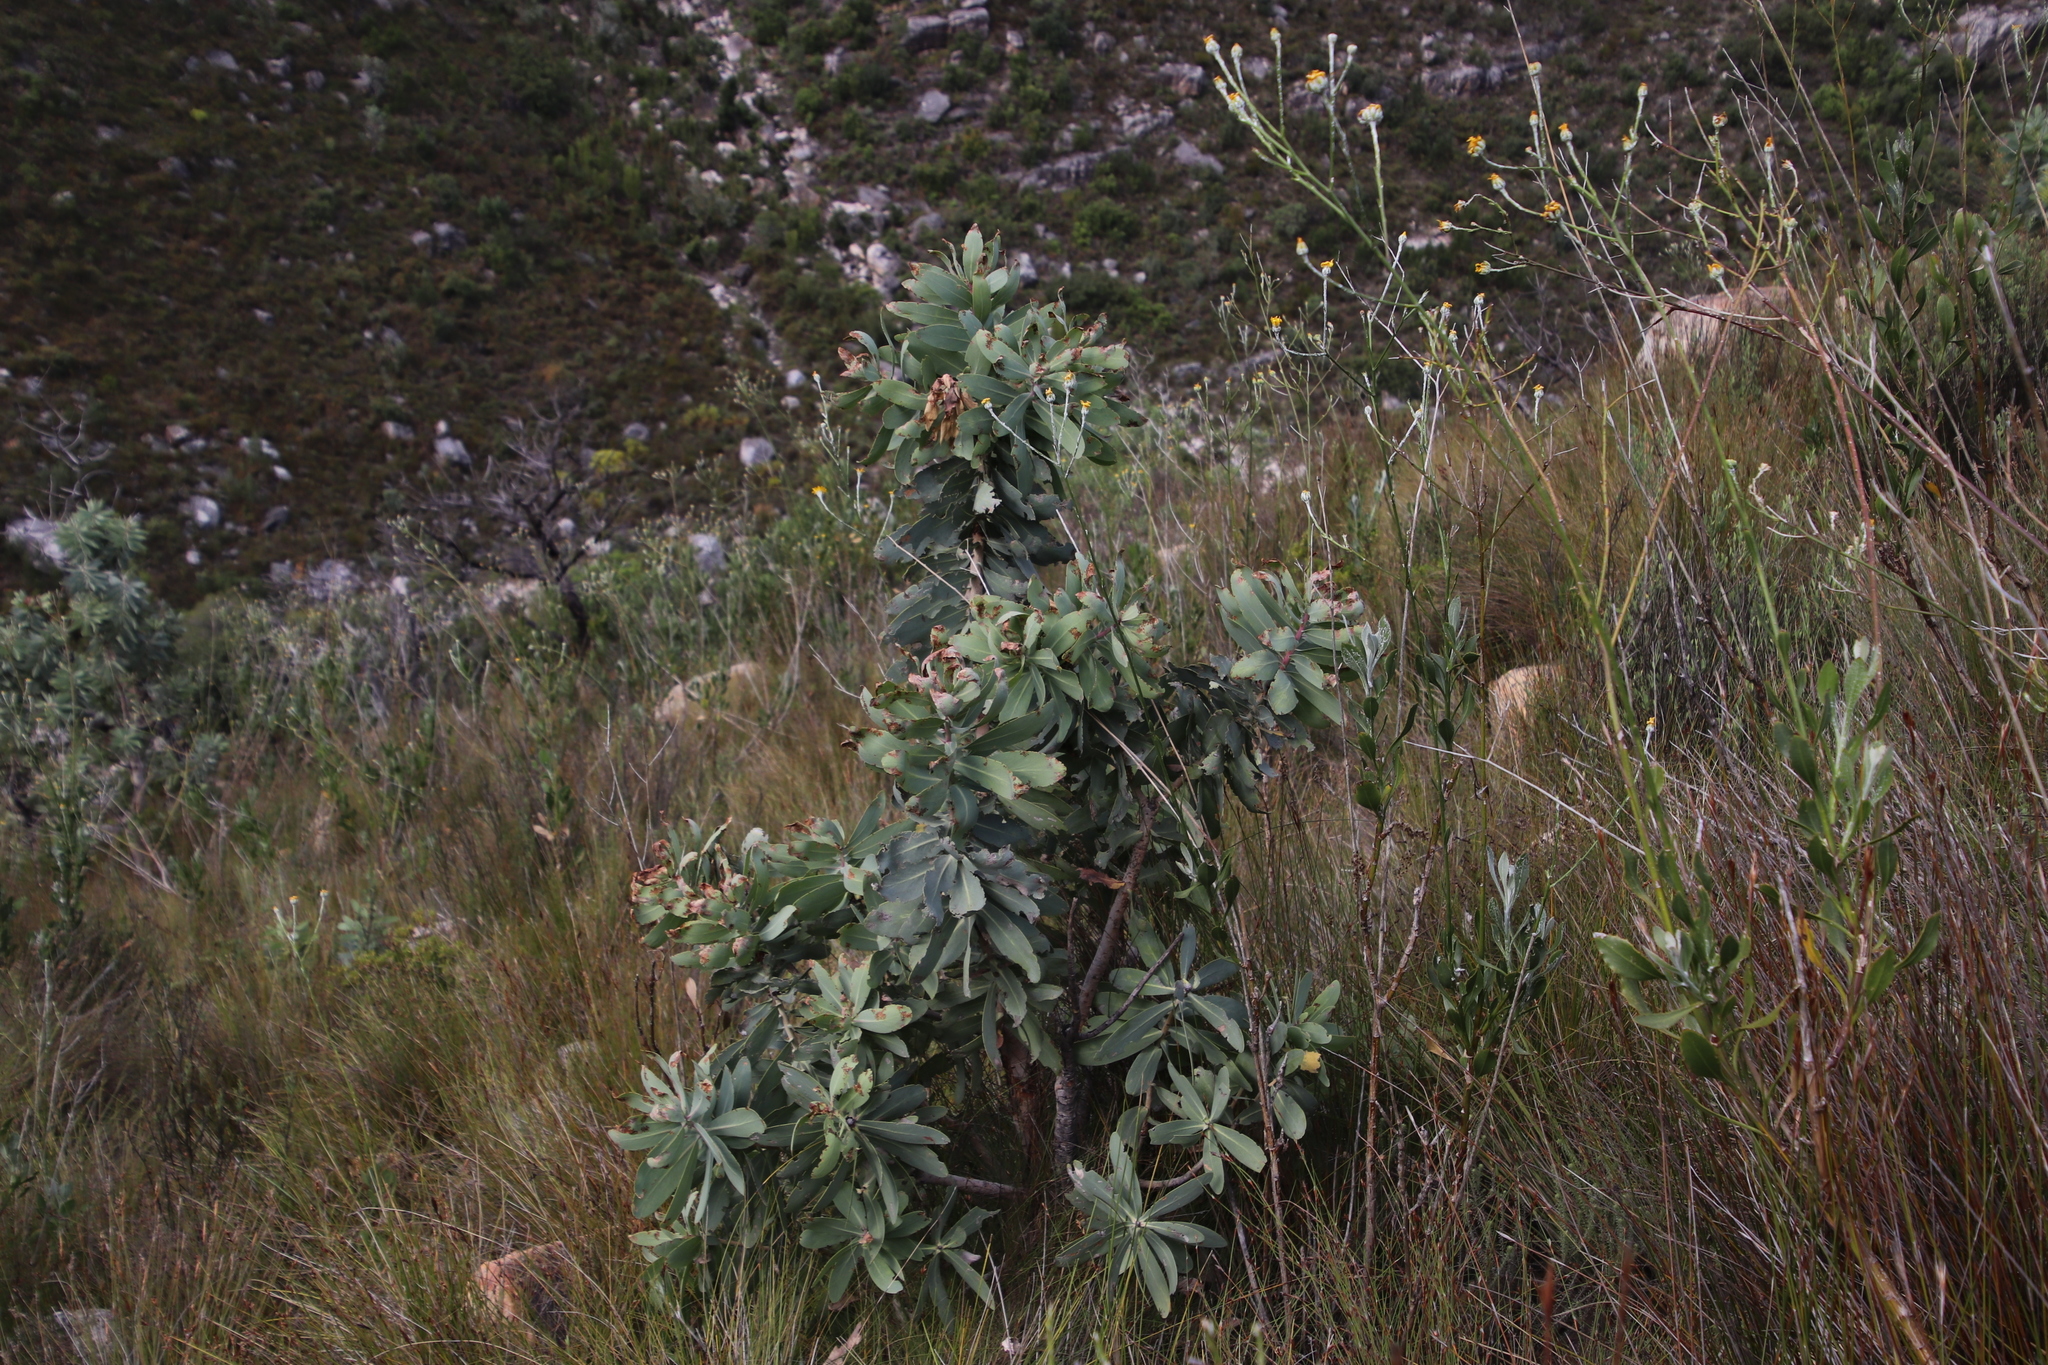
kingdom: Plantae
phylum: Tracheophyta
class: Magnoliopsida
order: Proteales
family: Proteaceae
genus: Protea
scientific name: Protea nitida
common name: Tree protea
